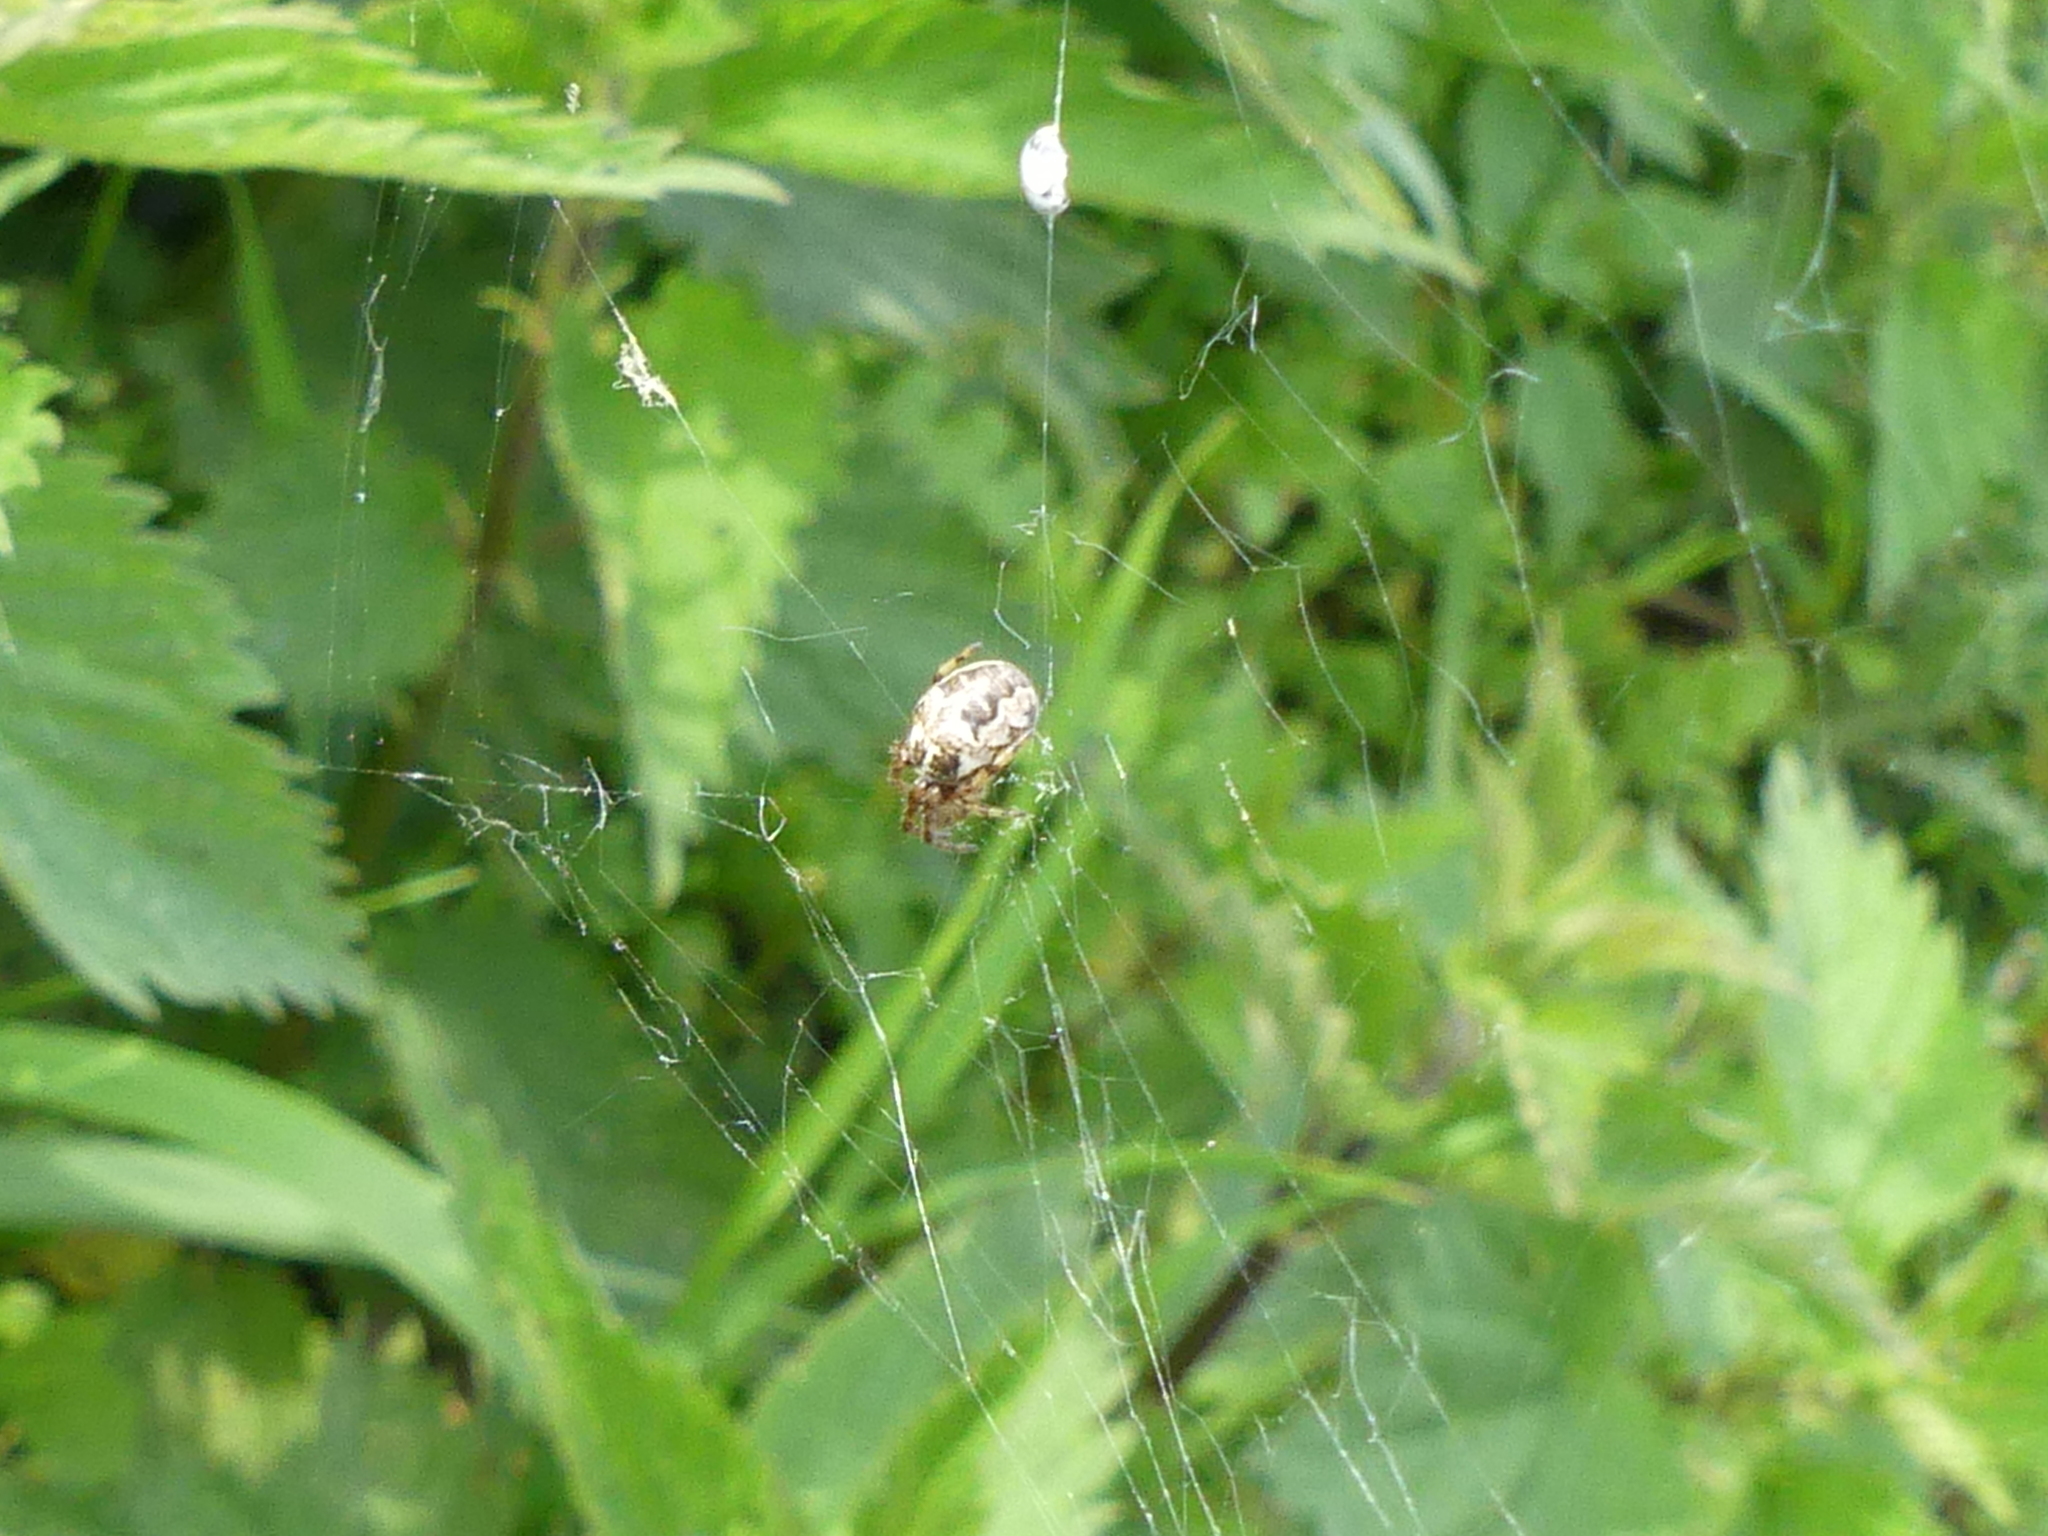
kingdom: Animalia
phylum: Arthropoda
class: Arachnida
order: Araneae
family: Araneidae
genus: Larinioides
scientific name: Larinioides cornutus
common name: Furrow orbweaver
